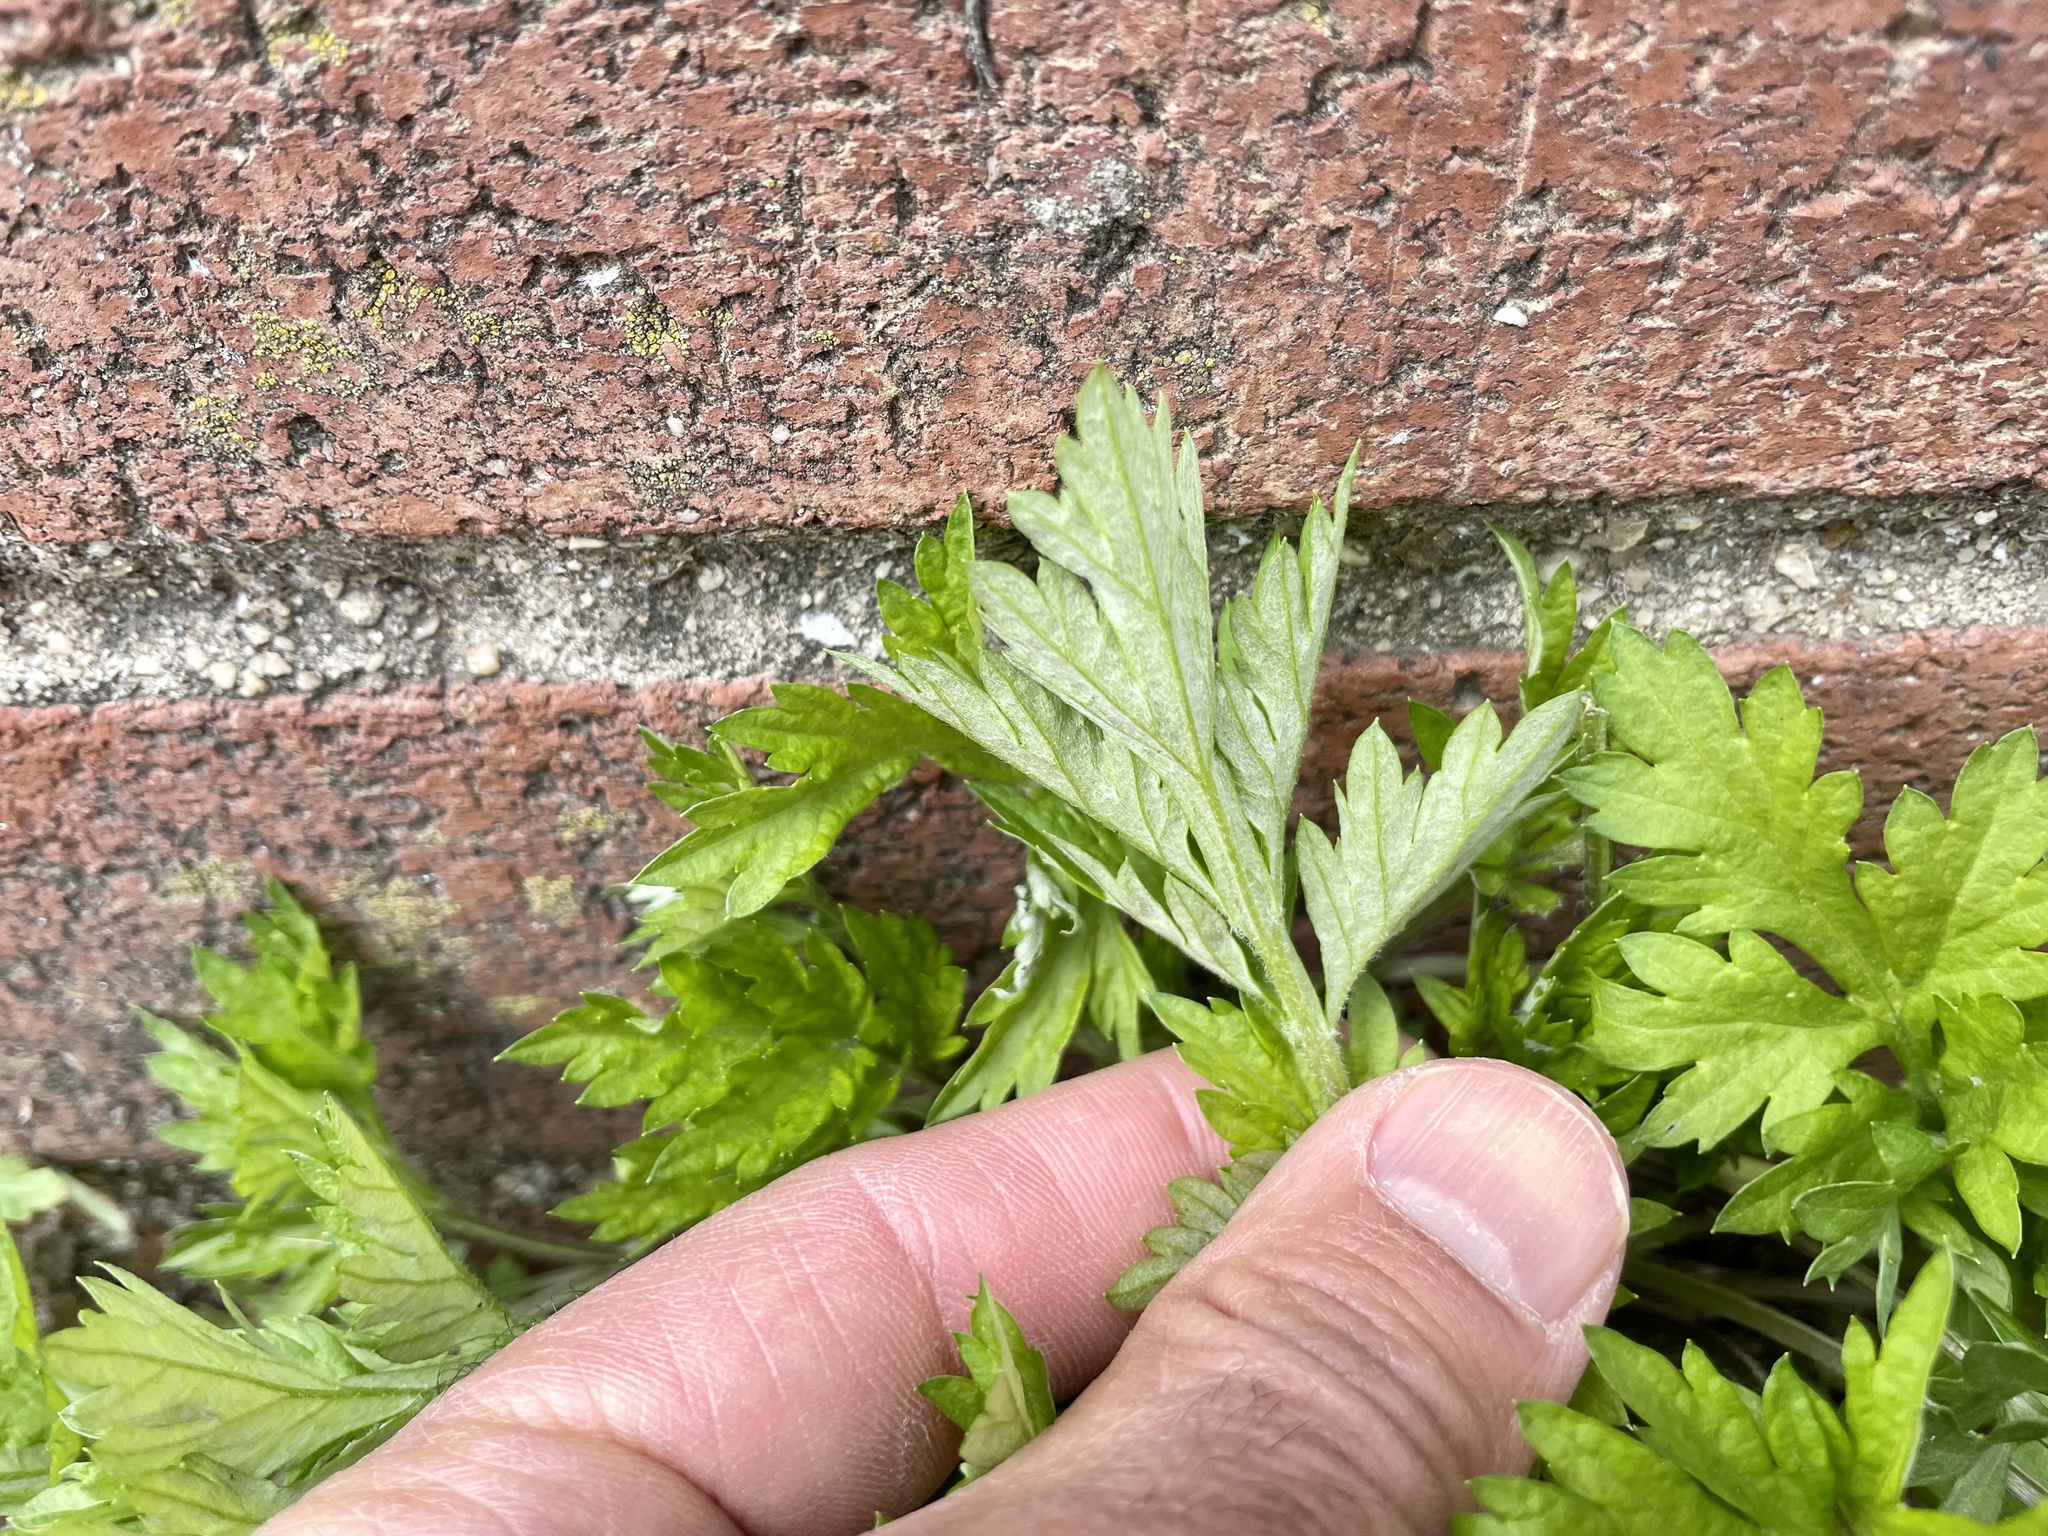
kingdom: Plantae
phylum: Tracheophyta
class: Magnoliopsida
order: Asterales
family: Asteraceae
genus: Artemisia
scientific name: Artemisia vulgaris
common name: Mugwort
